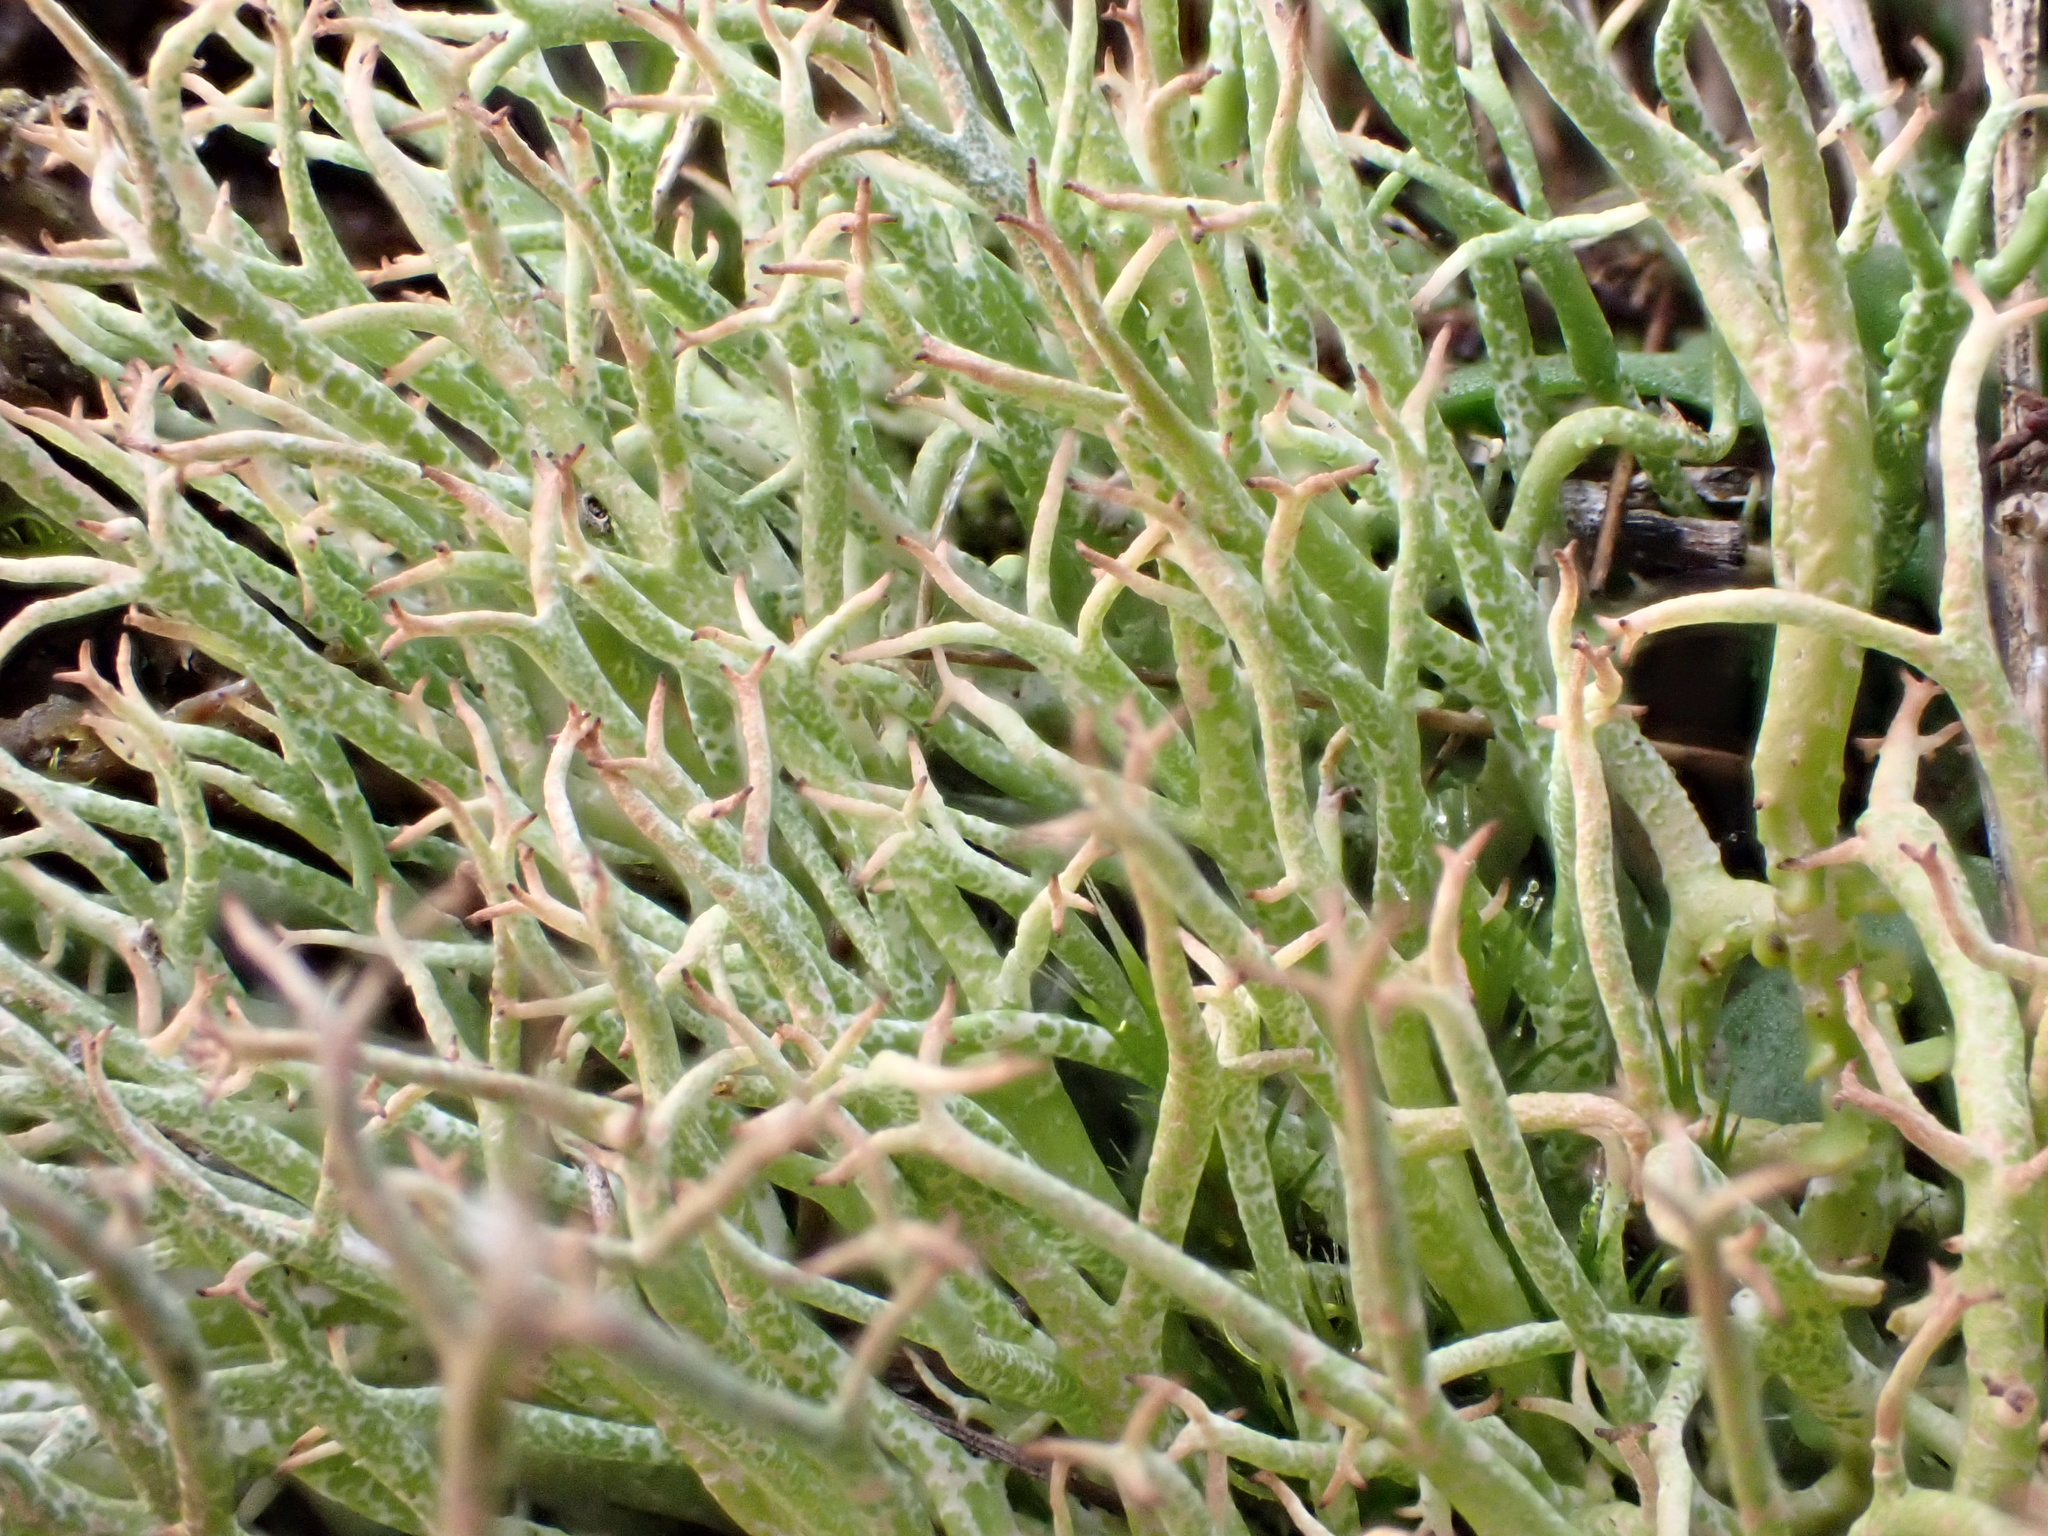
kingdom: Fungi
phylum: Ascomycota
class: Lecanoromycetes
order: Lecanorales
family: Cladoniaceae
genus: Cladonia
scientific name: Cladonia furcata
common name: Many-forked cladonia
